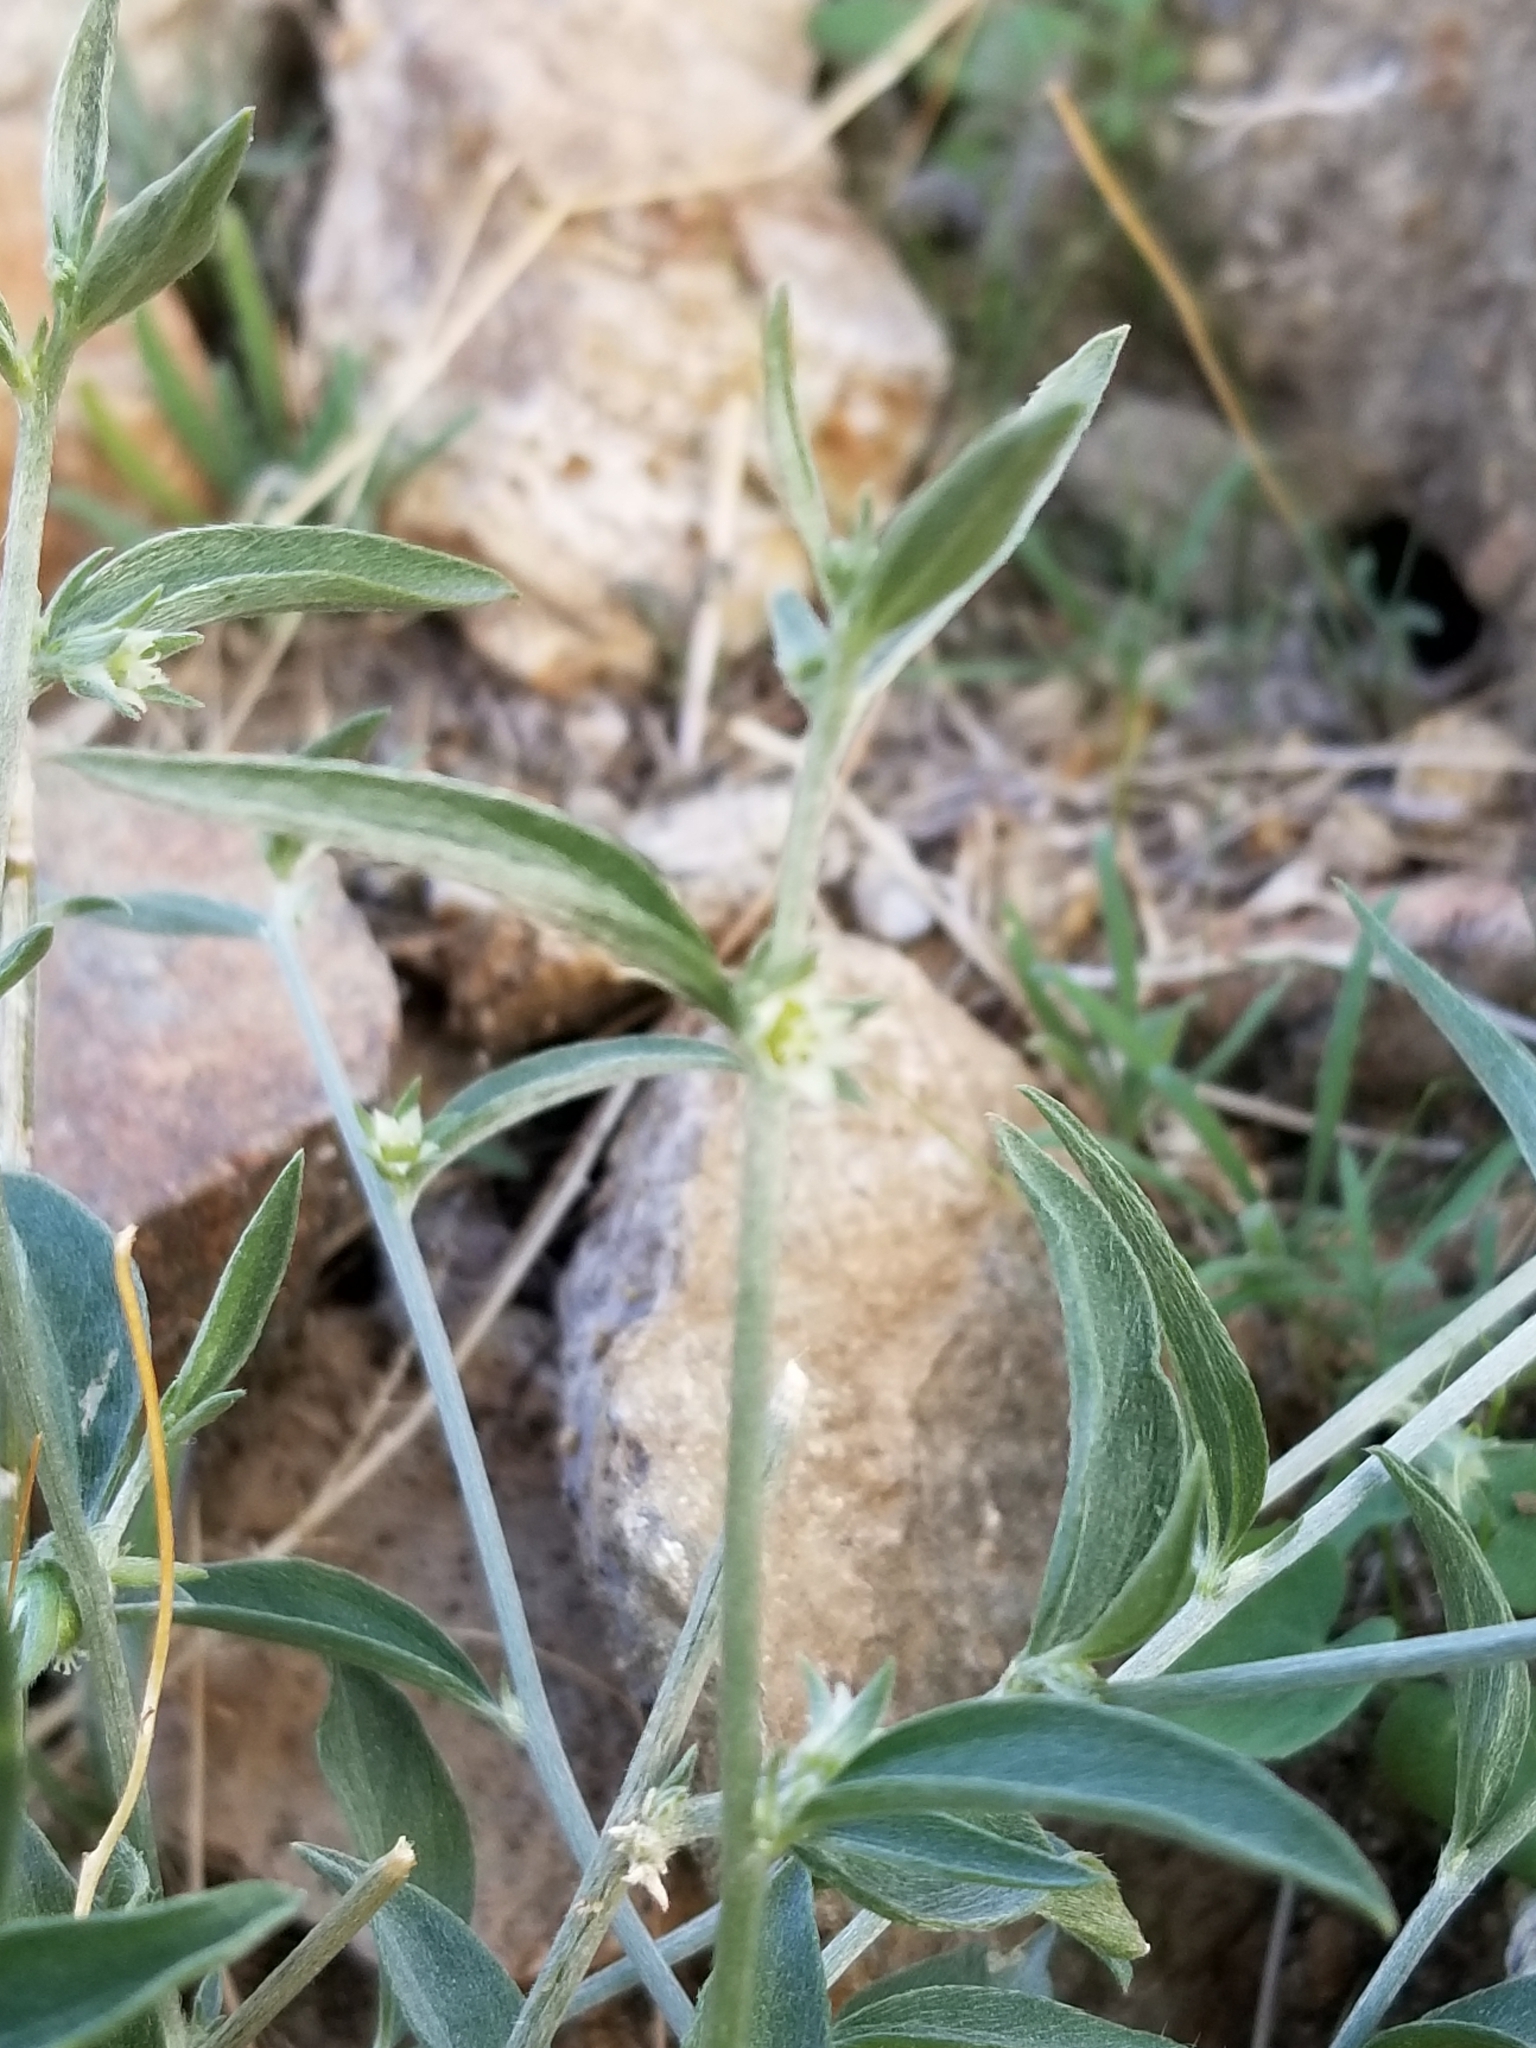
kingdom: Plantae
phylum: Tracheophyta
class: Magnoliopsida
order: Malpighiales
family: Euphorbiaceae
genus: Ditaxis
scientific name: Ditaxis lanceolata
